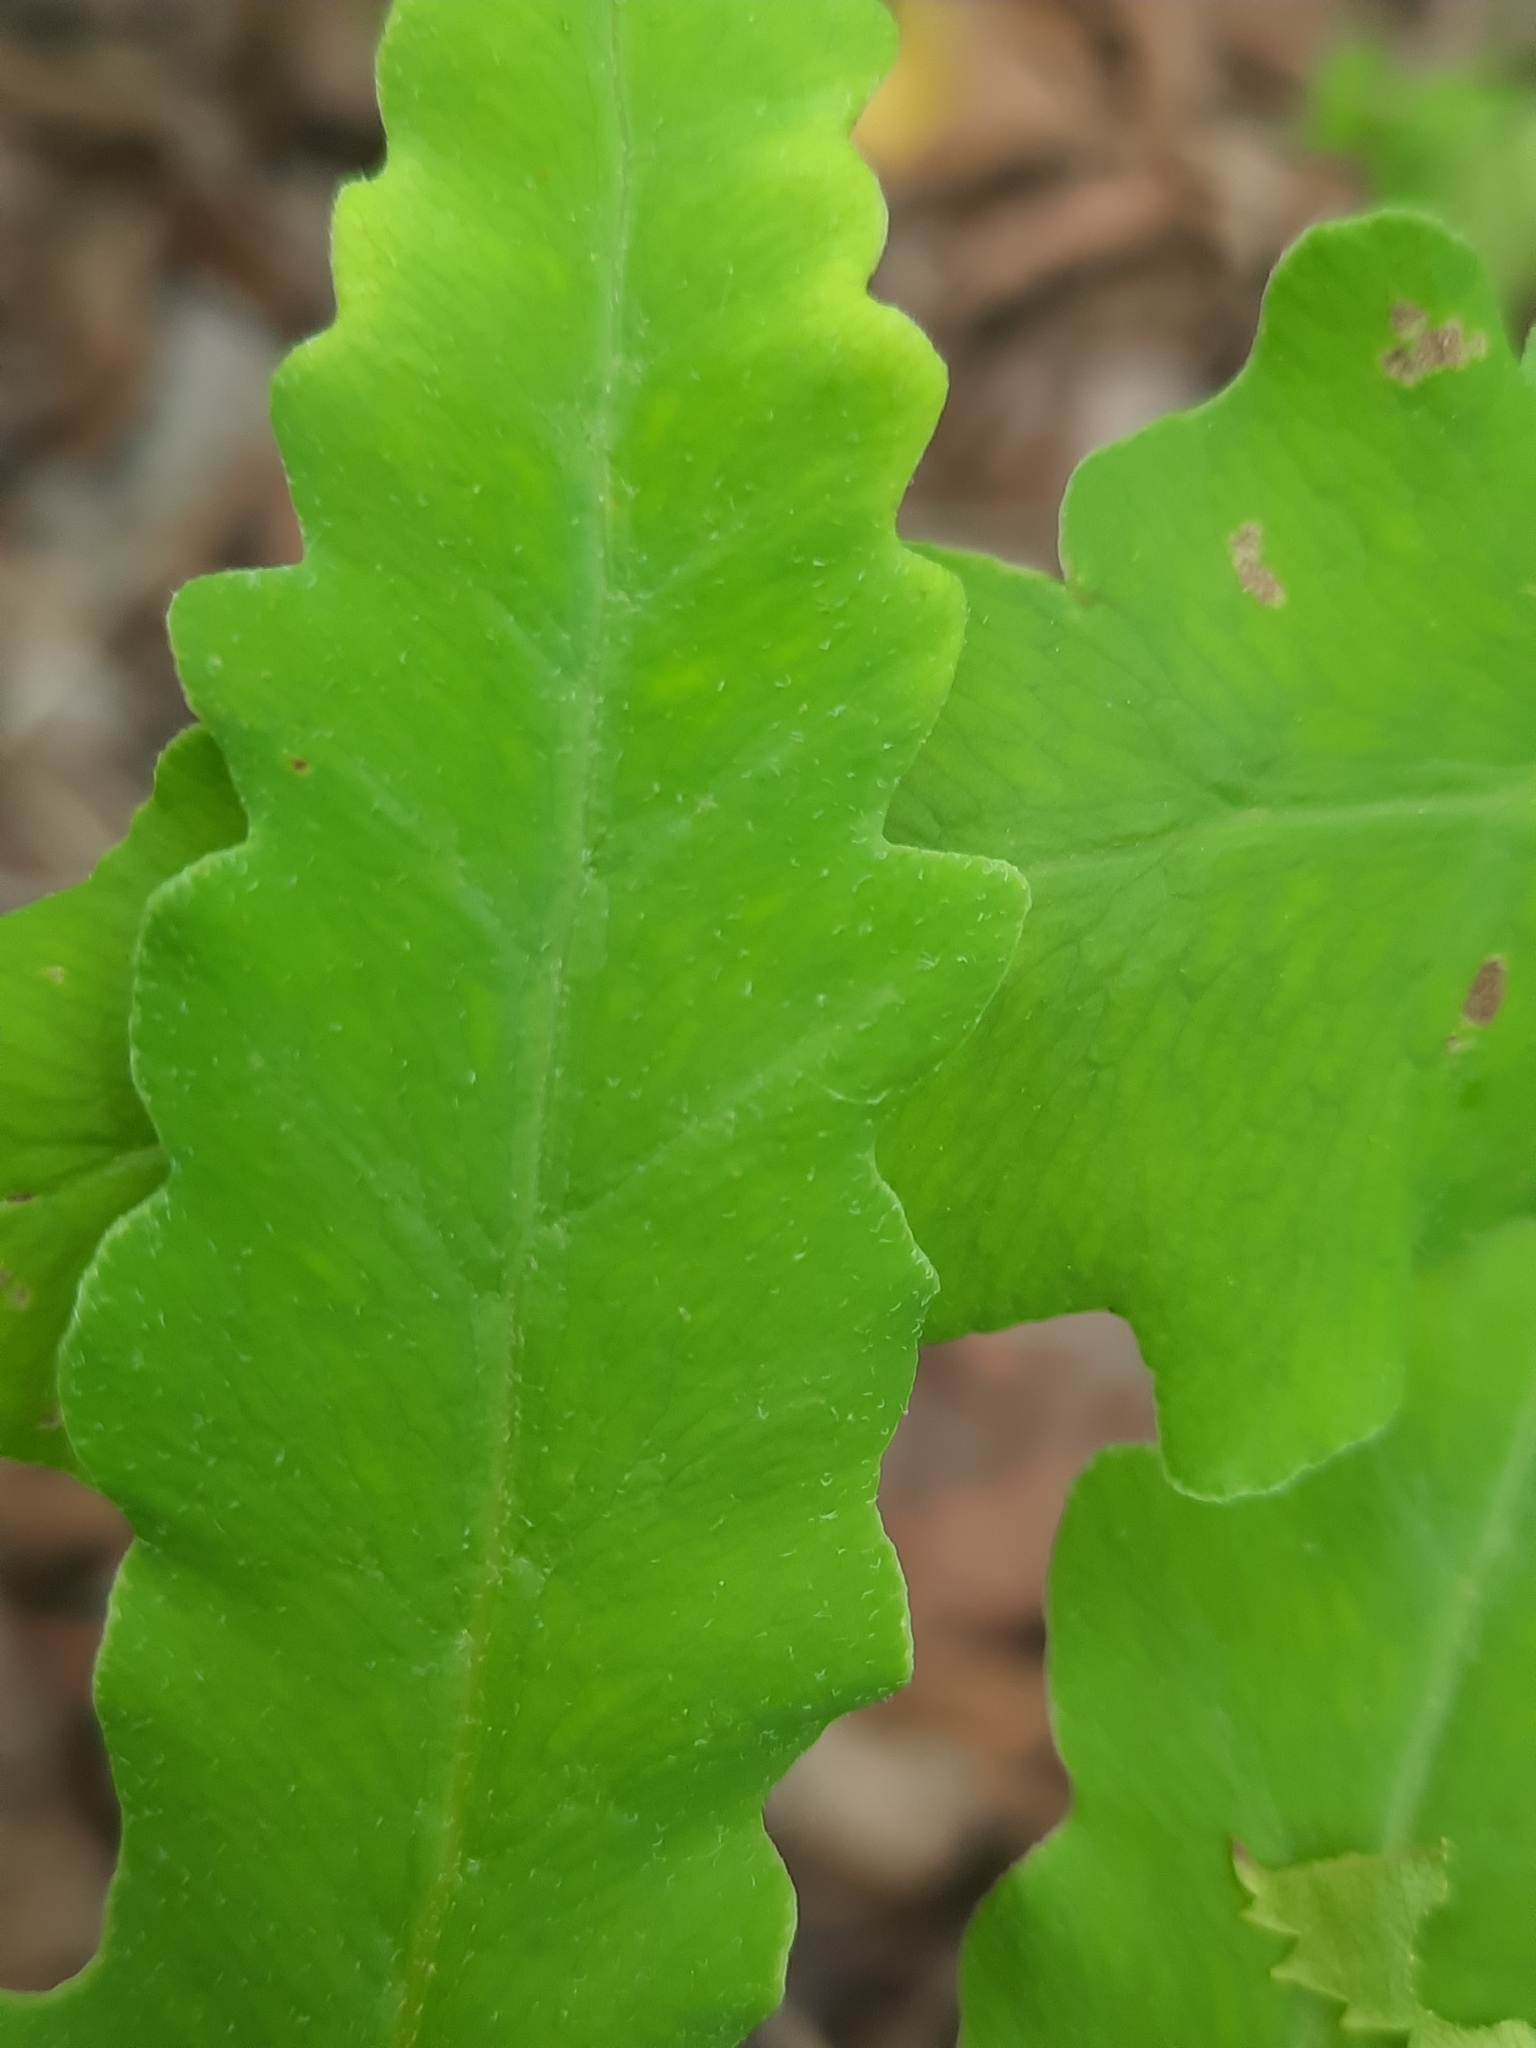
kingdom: Plantae
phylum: Tracheophyta
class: Polypodiopsida
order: Polypodiales
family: Onocleaceae
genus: Onoclea
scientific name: Onoclea sensibilis
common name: Sensitive fern
